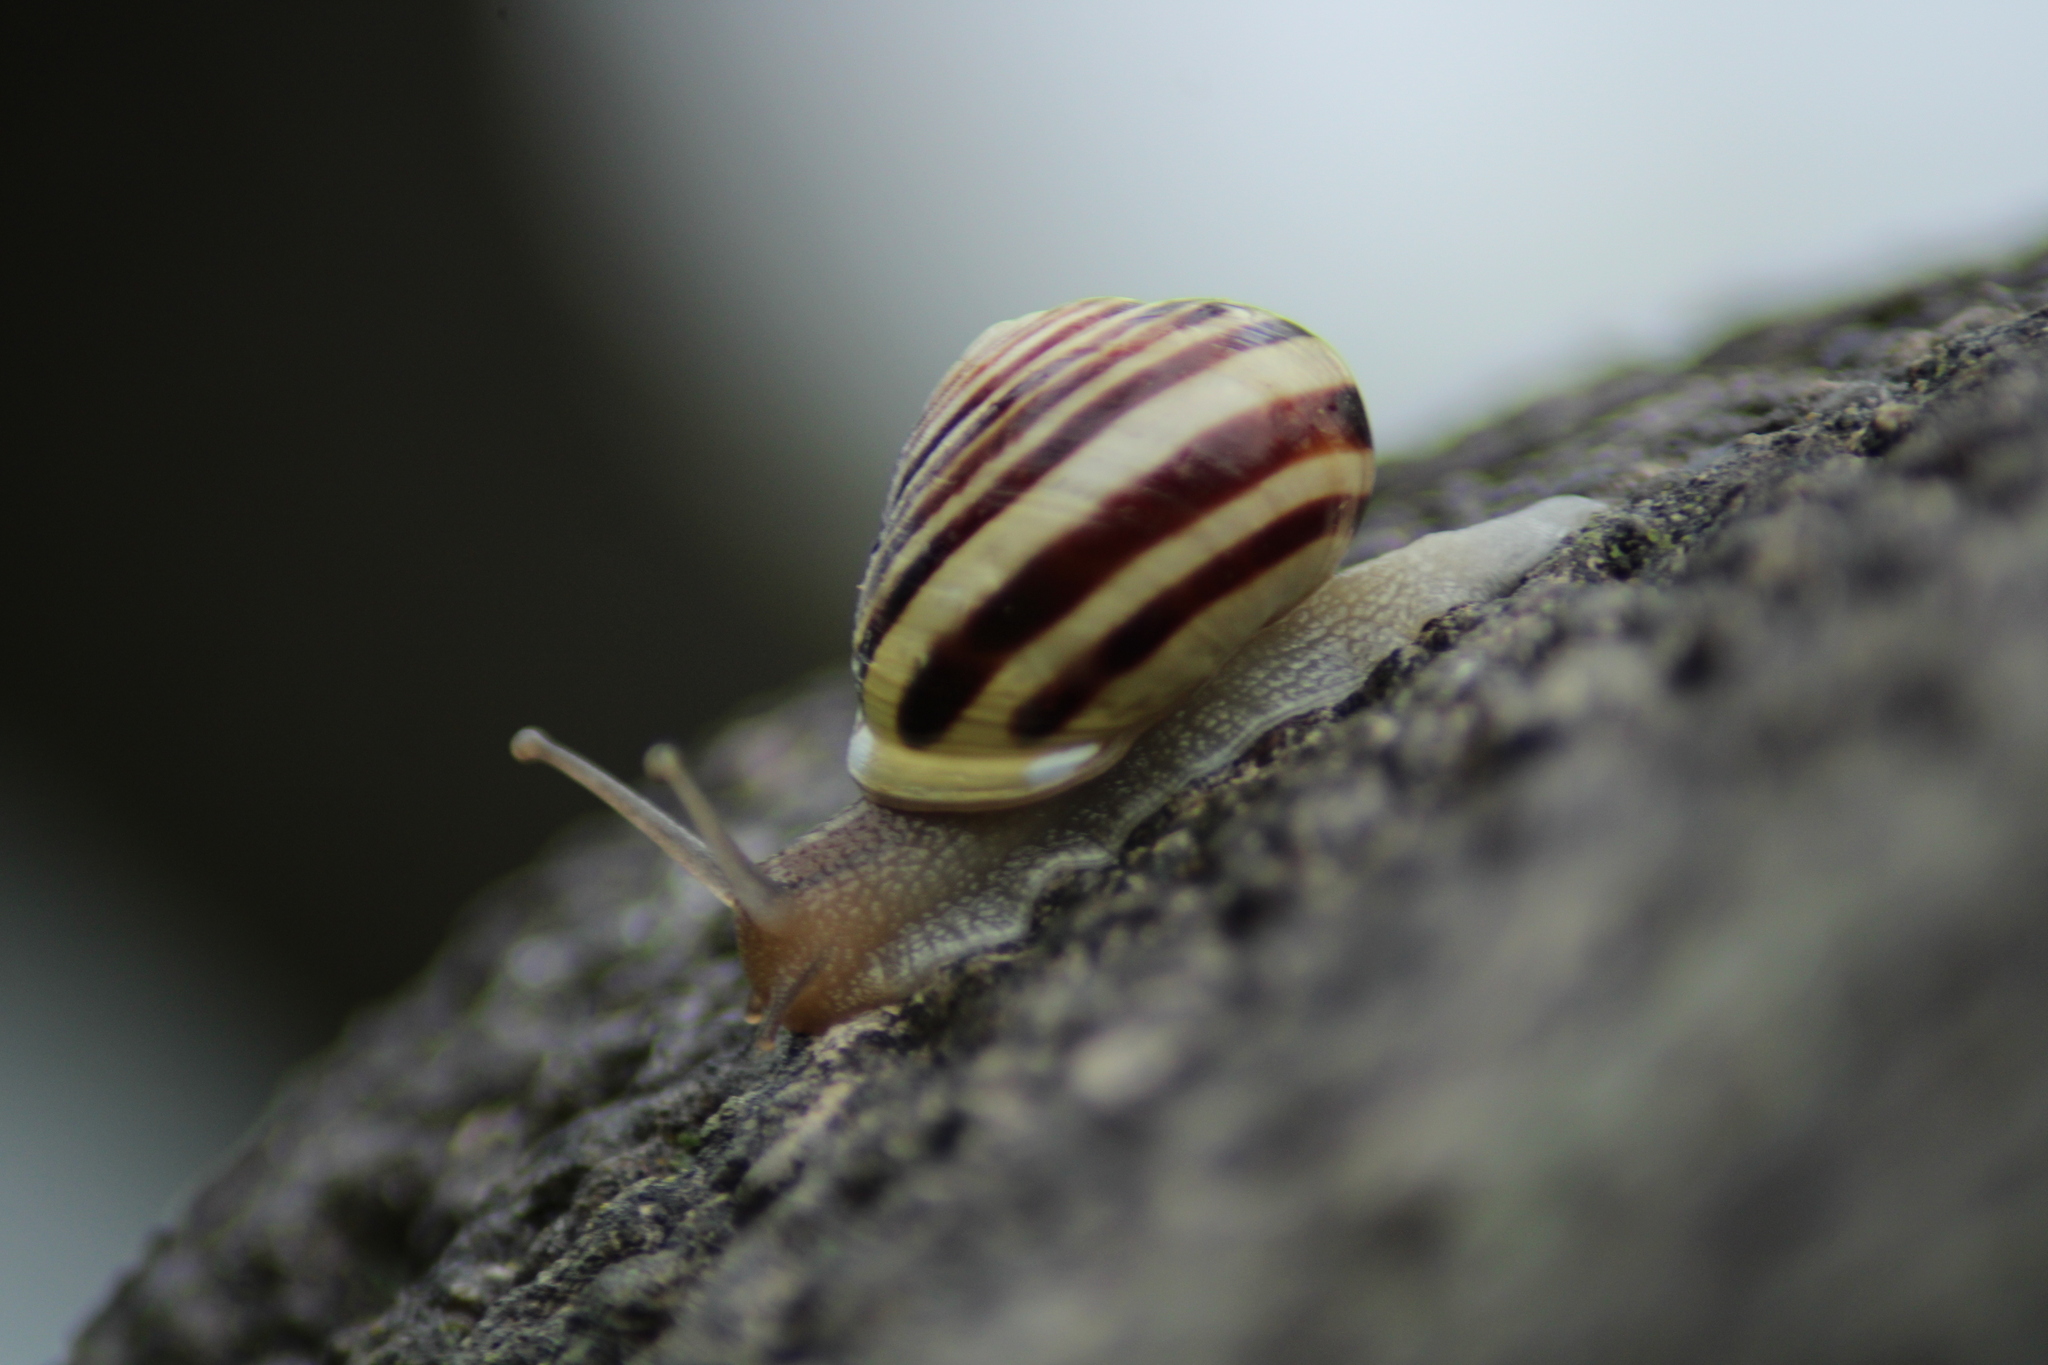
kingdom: Animalia
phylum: Mollusca
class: Gastropoda
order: Stylommatophora
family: Helicidae
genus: Cepaea
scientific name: Cepaea hortensis
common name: White-lip gardensnail
